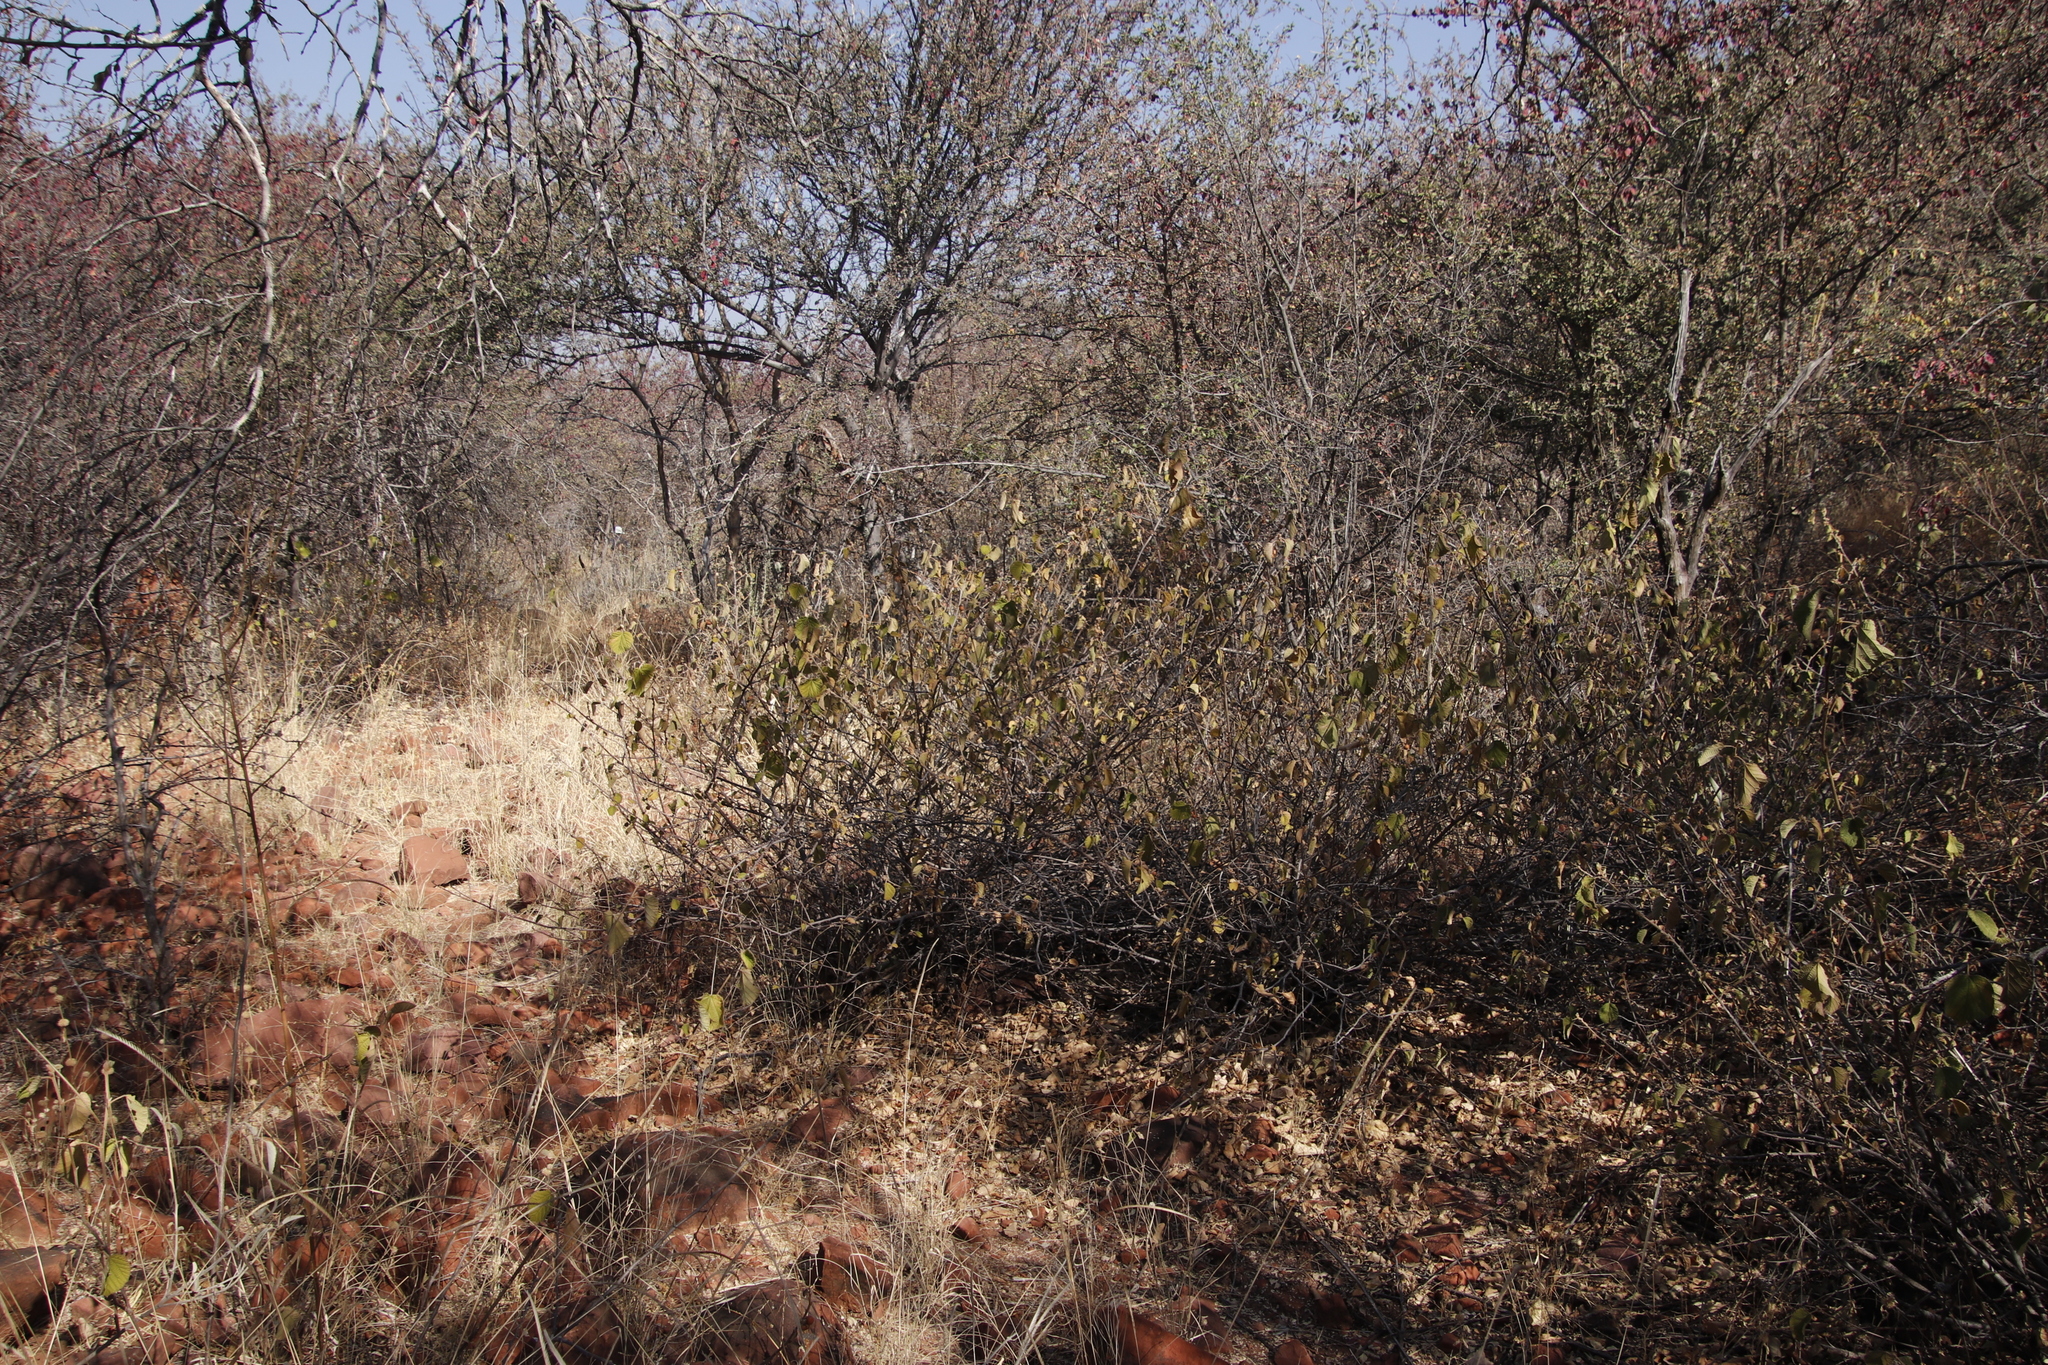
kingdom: Plantae
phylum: Tracheophyta
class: Magnoliopsida
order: Malvales
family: Malvaceae
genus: Grewia
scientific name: Grewia villosa
